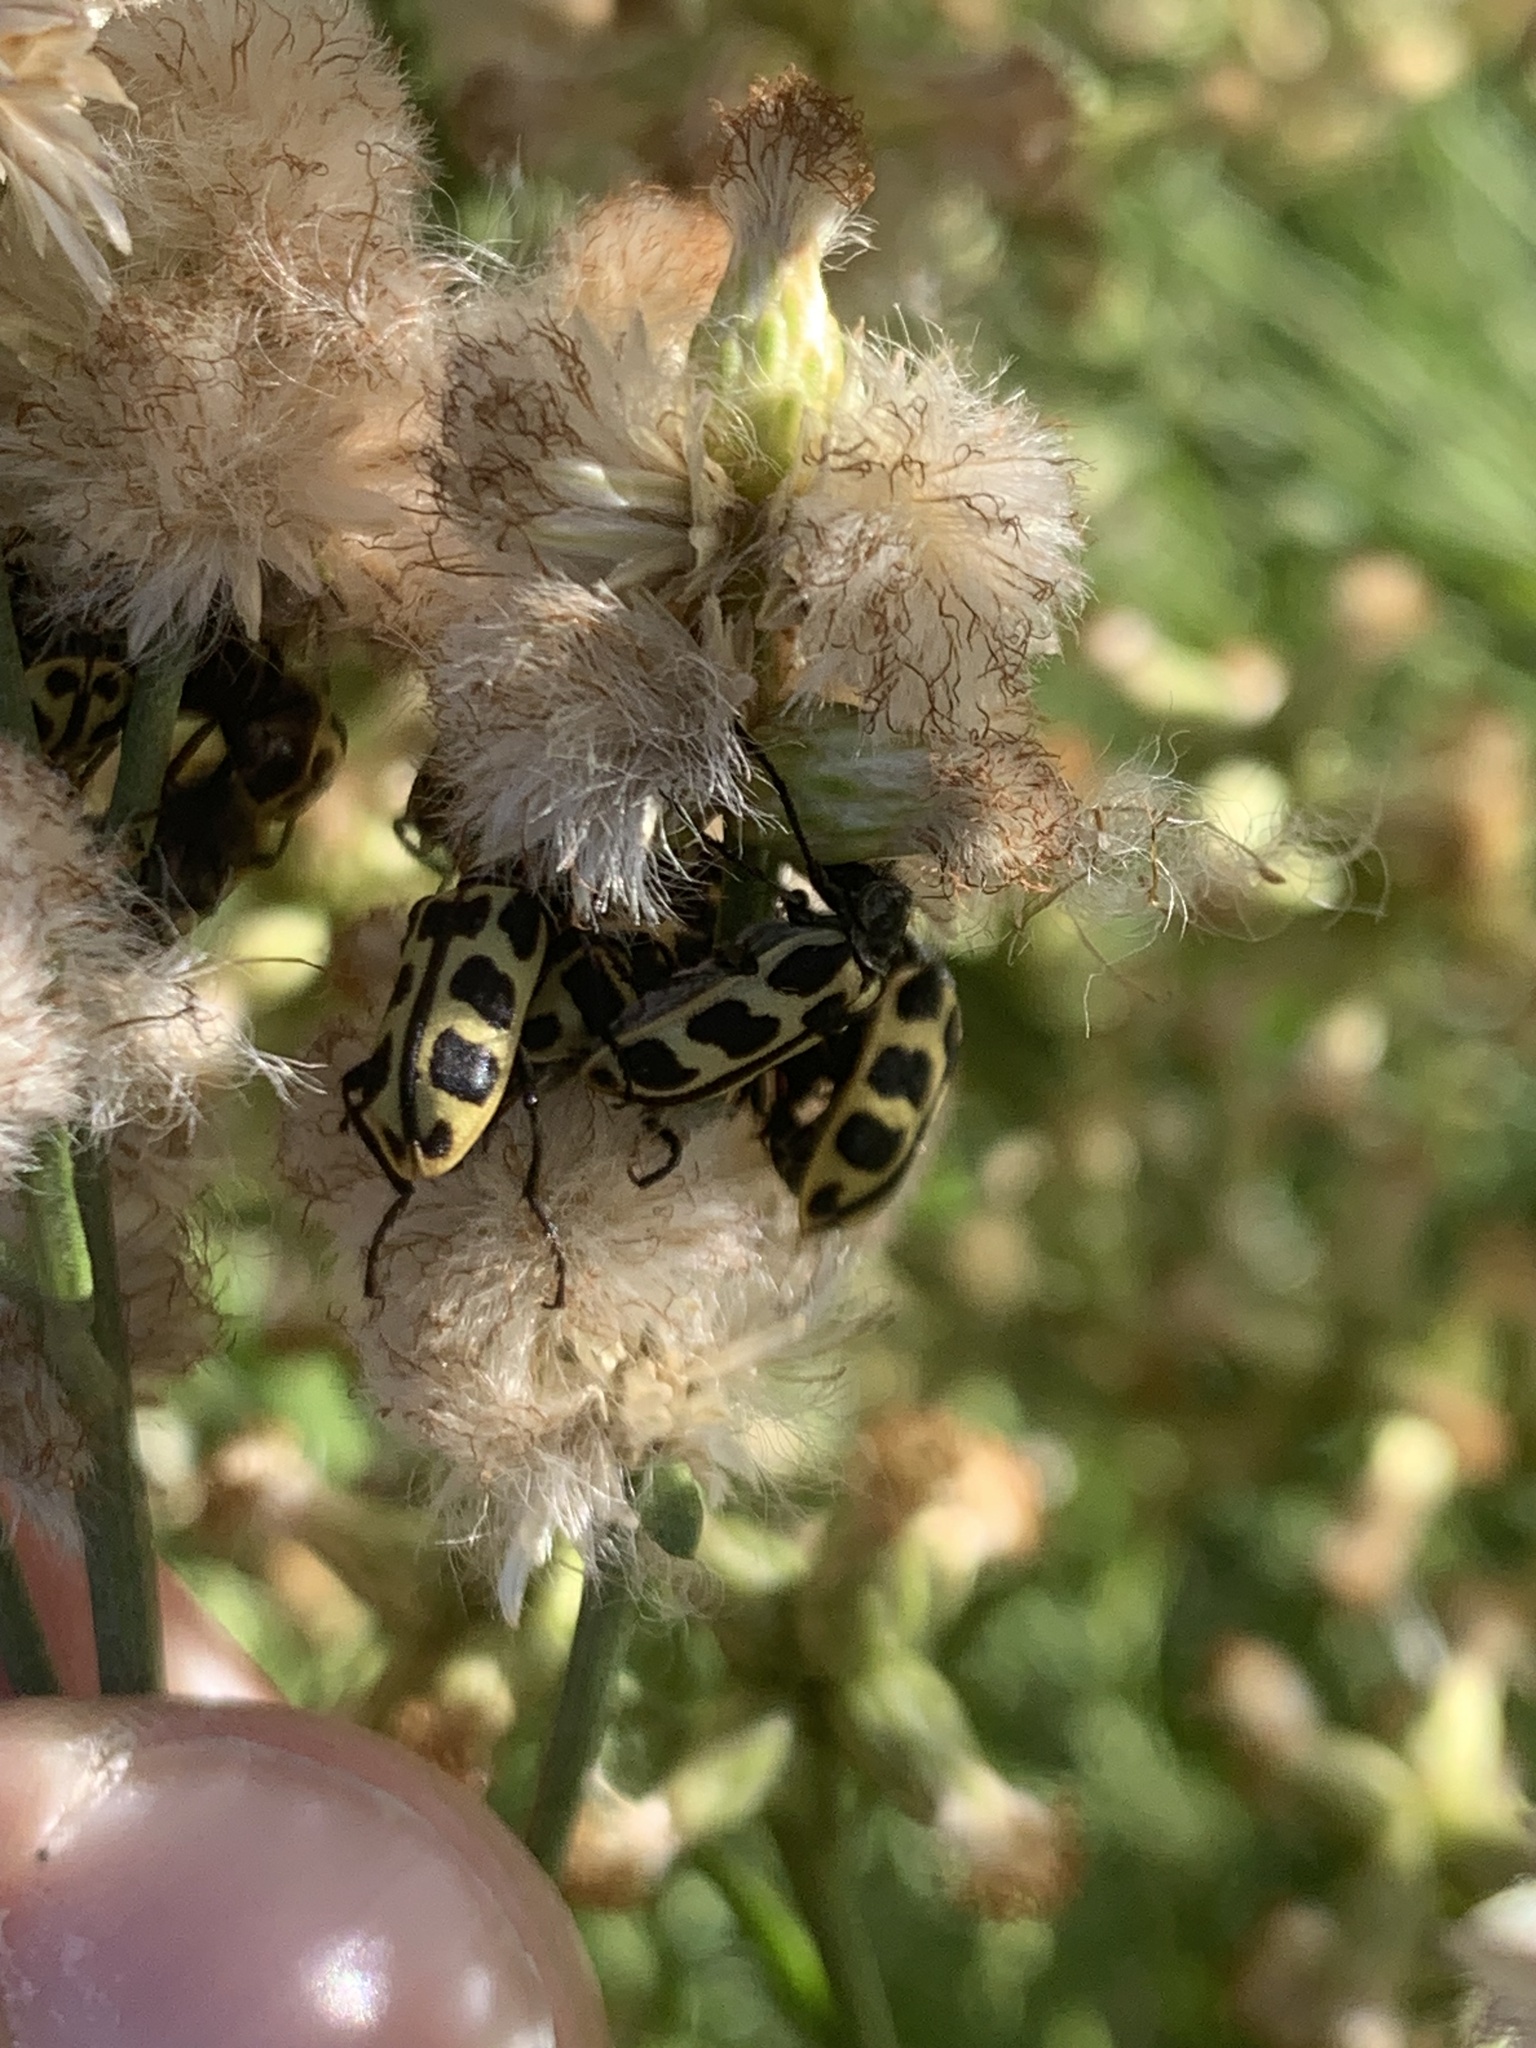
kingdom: Animalia
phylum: Arthropoda
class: Insecta
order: Coleoptera
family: Melyridae
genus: Astylus
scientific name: Astylus atromaculatus
